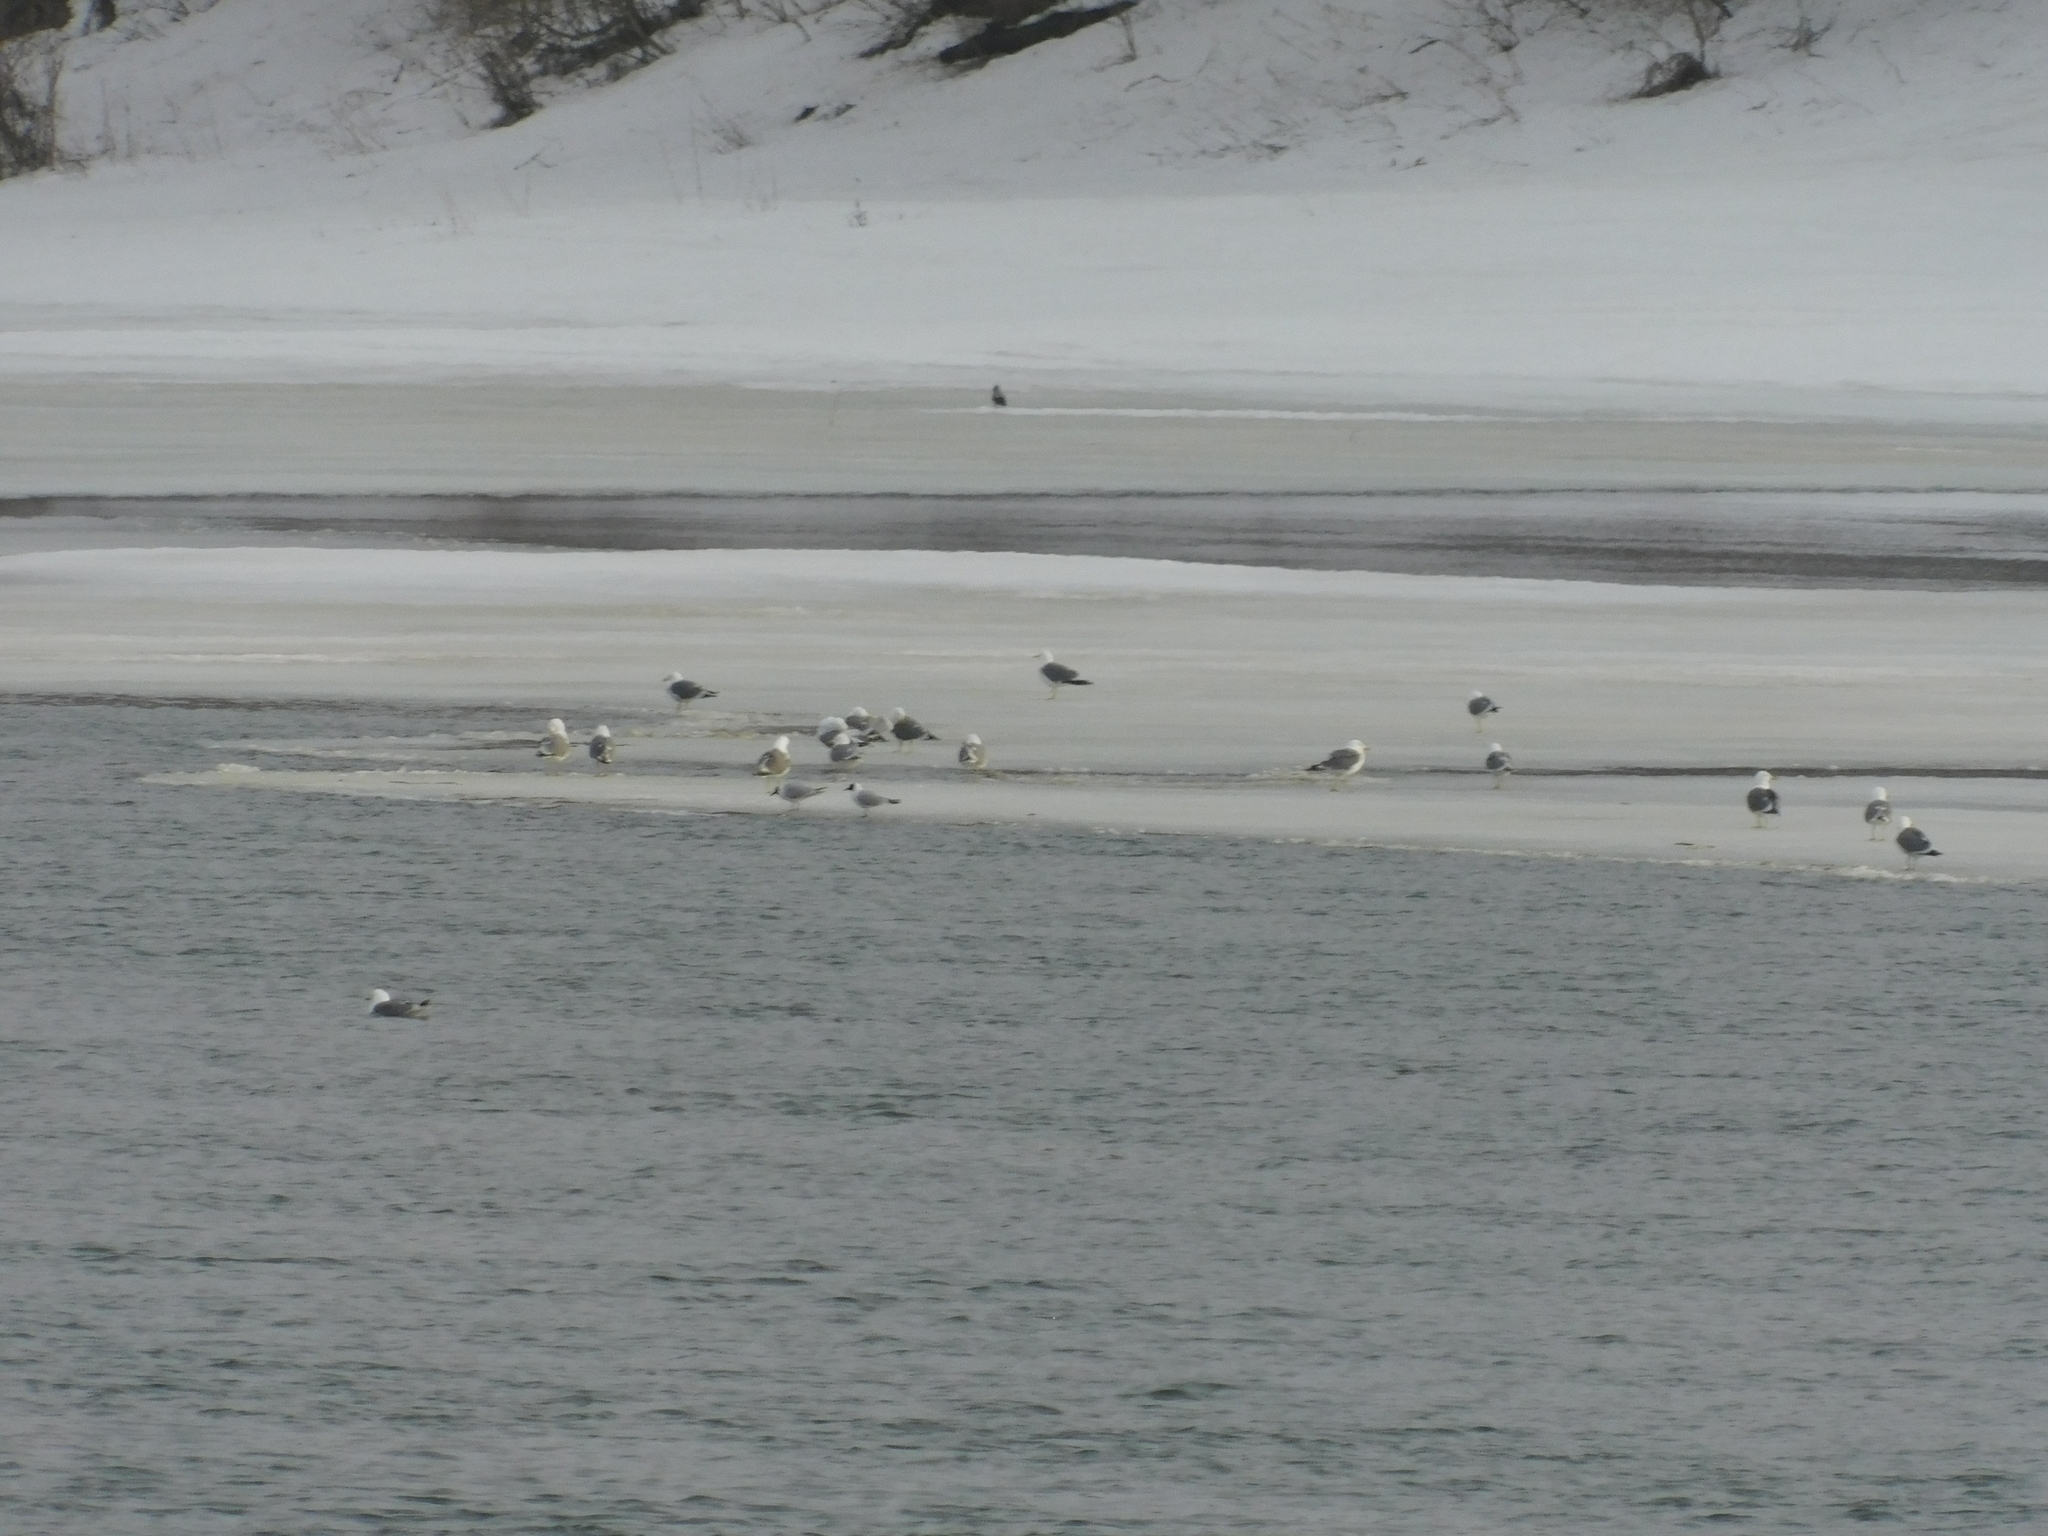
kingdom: Animalia
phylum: Chordata
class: Aves
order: Charadriiformes
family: Laridae
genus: Chroicocephalus
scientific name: Chroicocephalus ridibundus
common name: Black-headed gull
